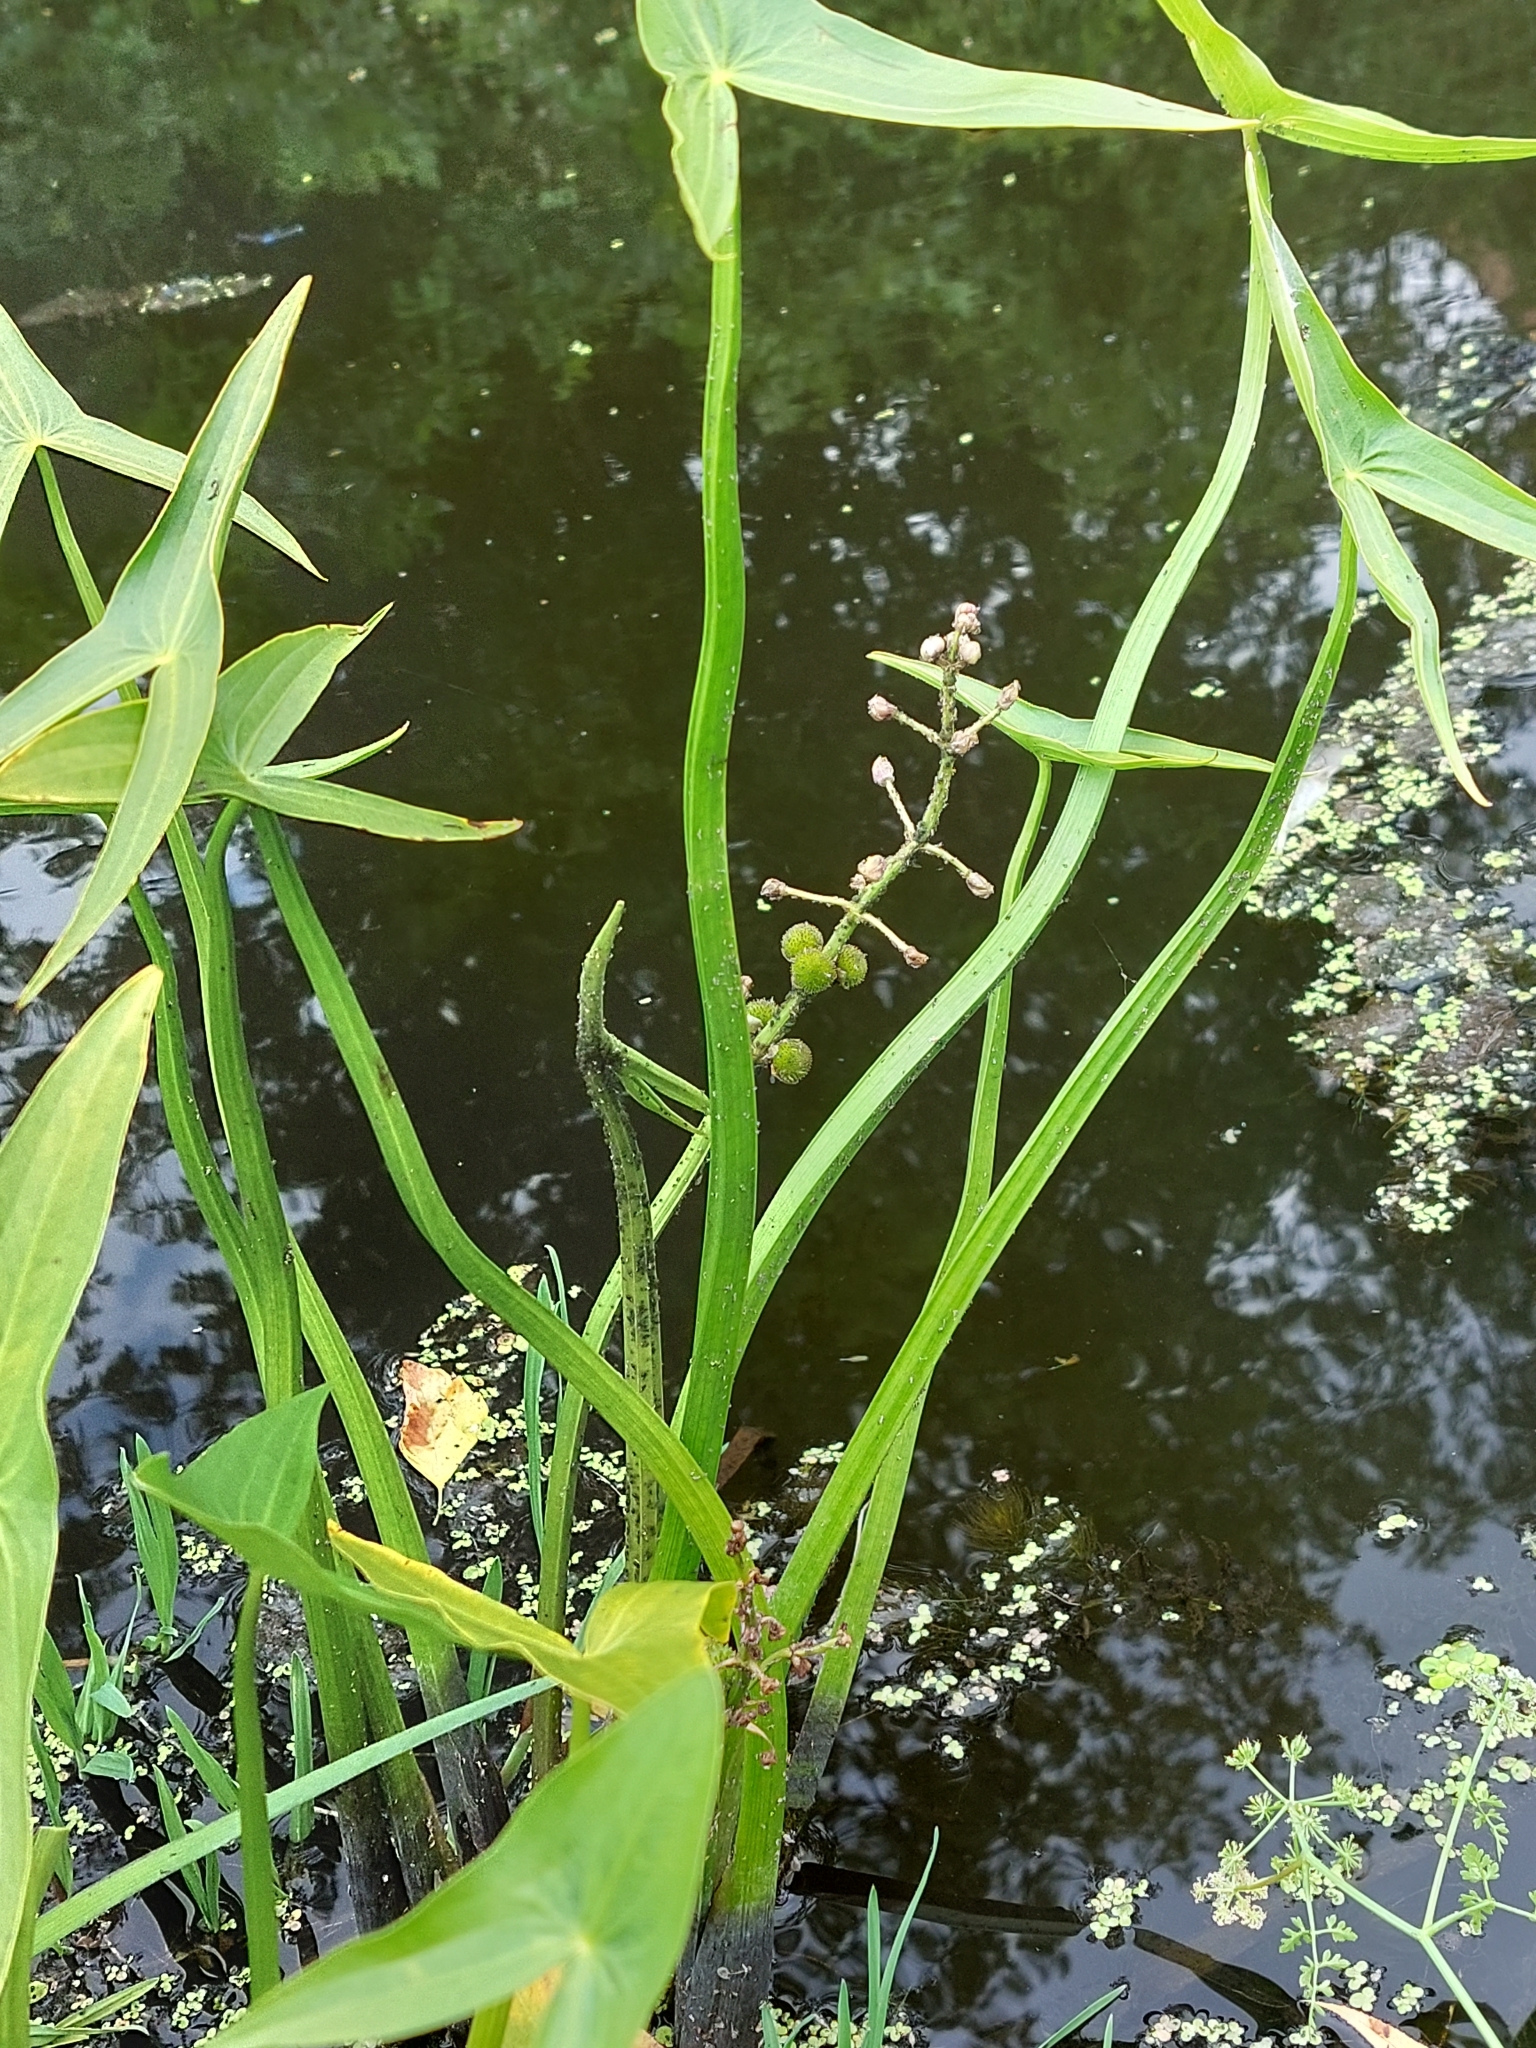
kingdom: Plantae
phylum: Tracheophyta
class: Liliopsida
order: Alismatales
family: Alismataceae
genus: Sagittaria
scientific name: Sagittaria sagittifolia
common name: Arrowhead
